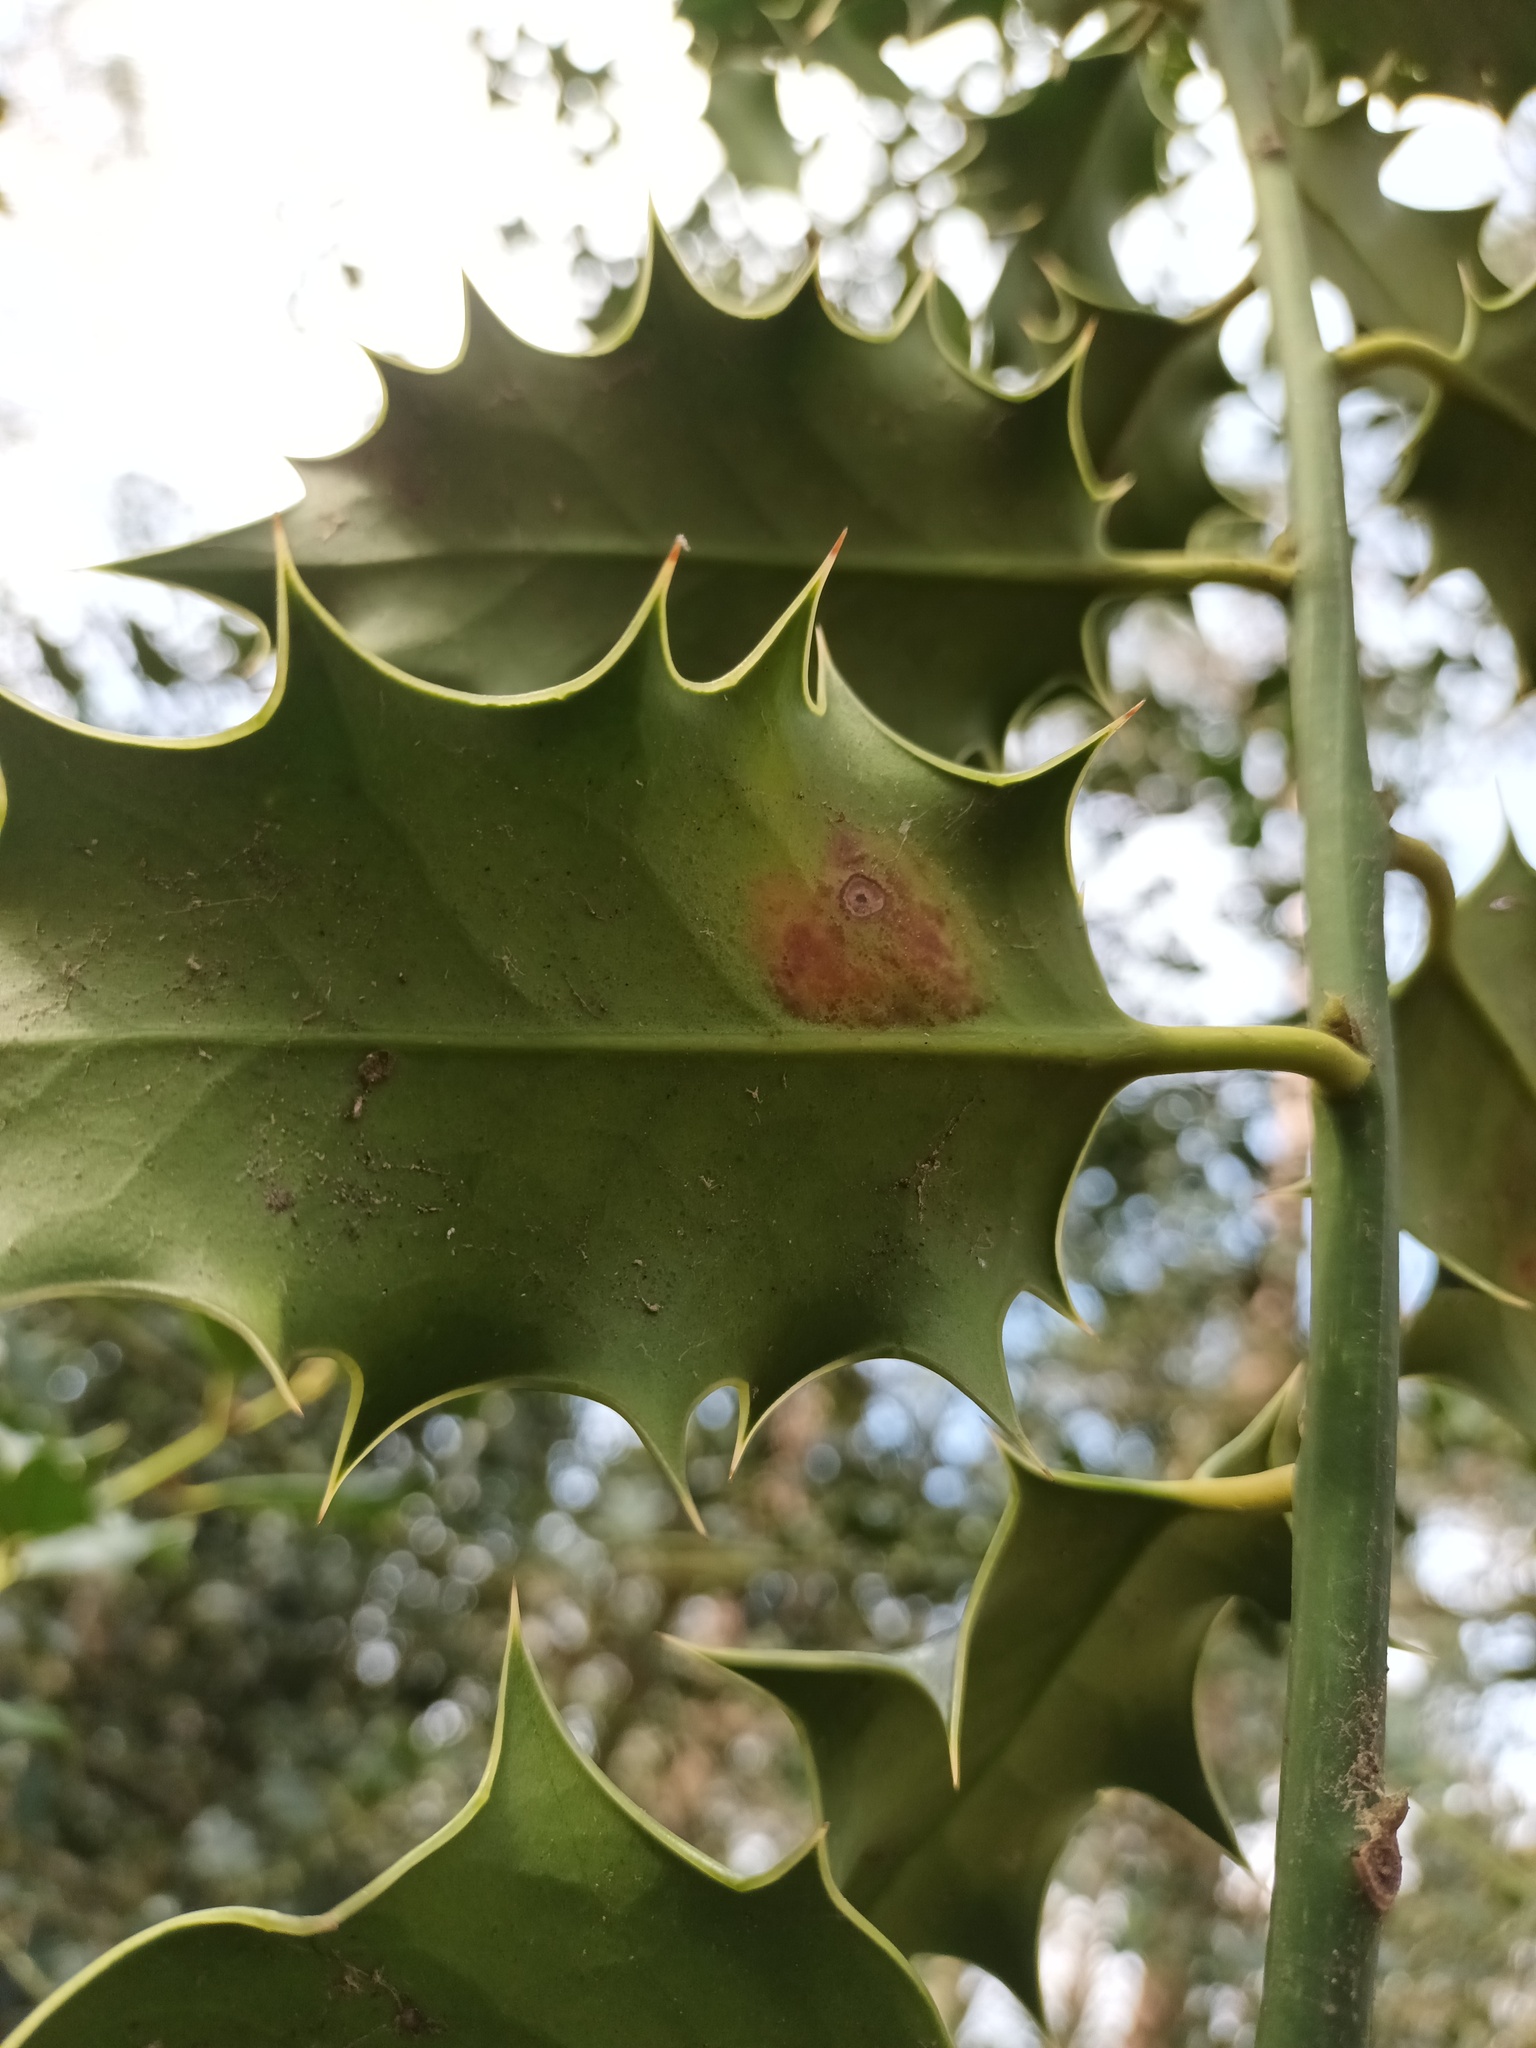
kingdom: Animalia
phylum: Arthropoda
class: Insecta
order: Diptera
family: Agromyzidae
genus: Phytomyza
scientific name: Phytomyza ilicis
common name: Holly leafminer
